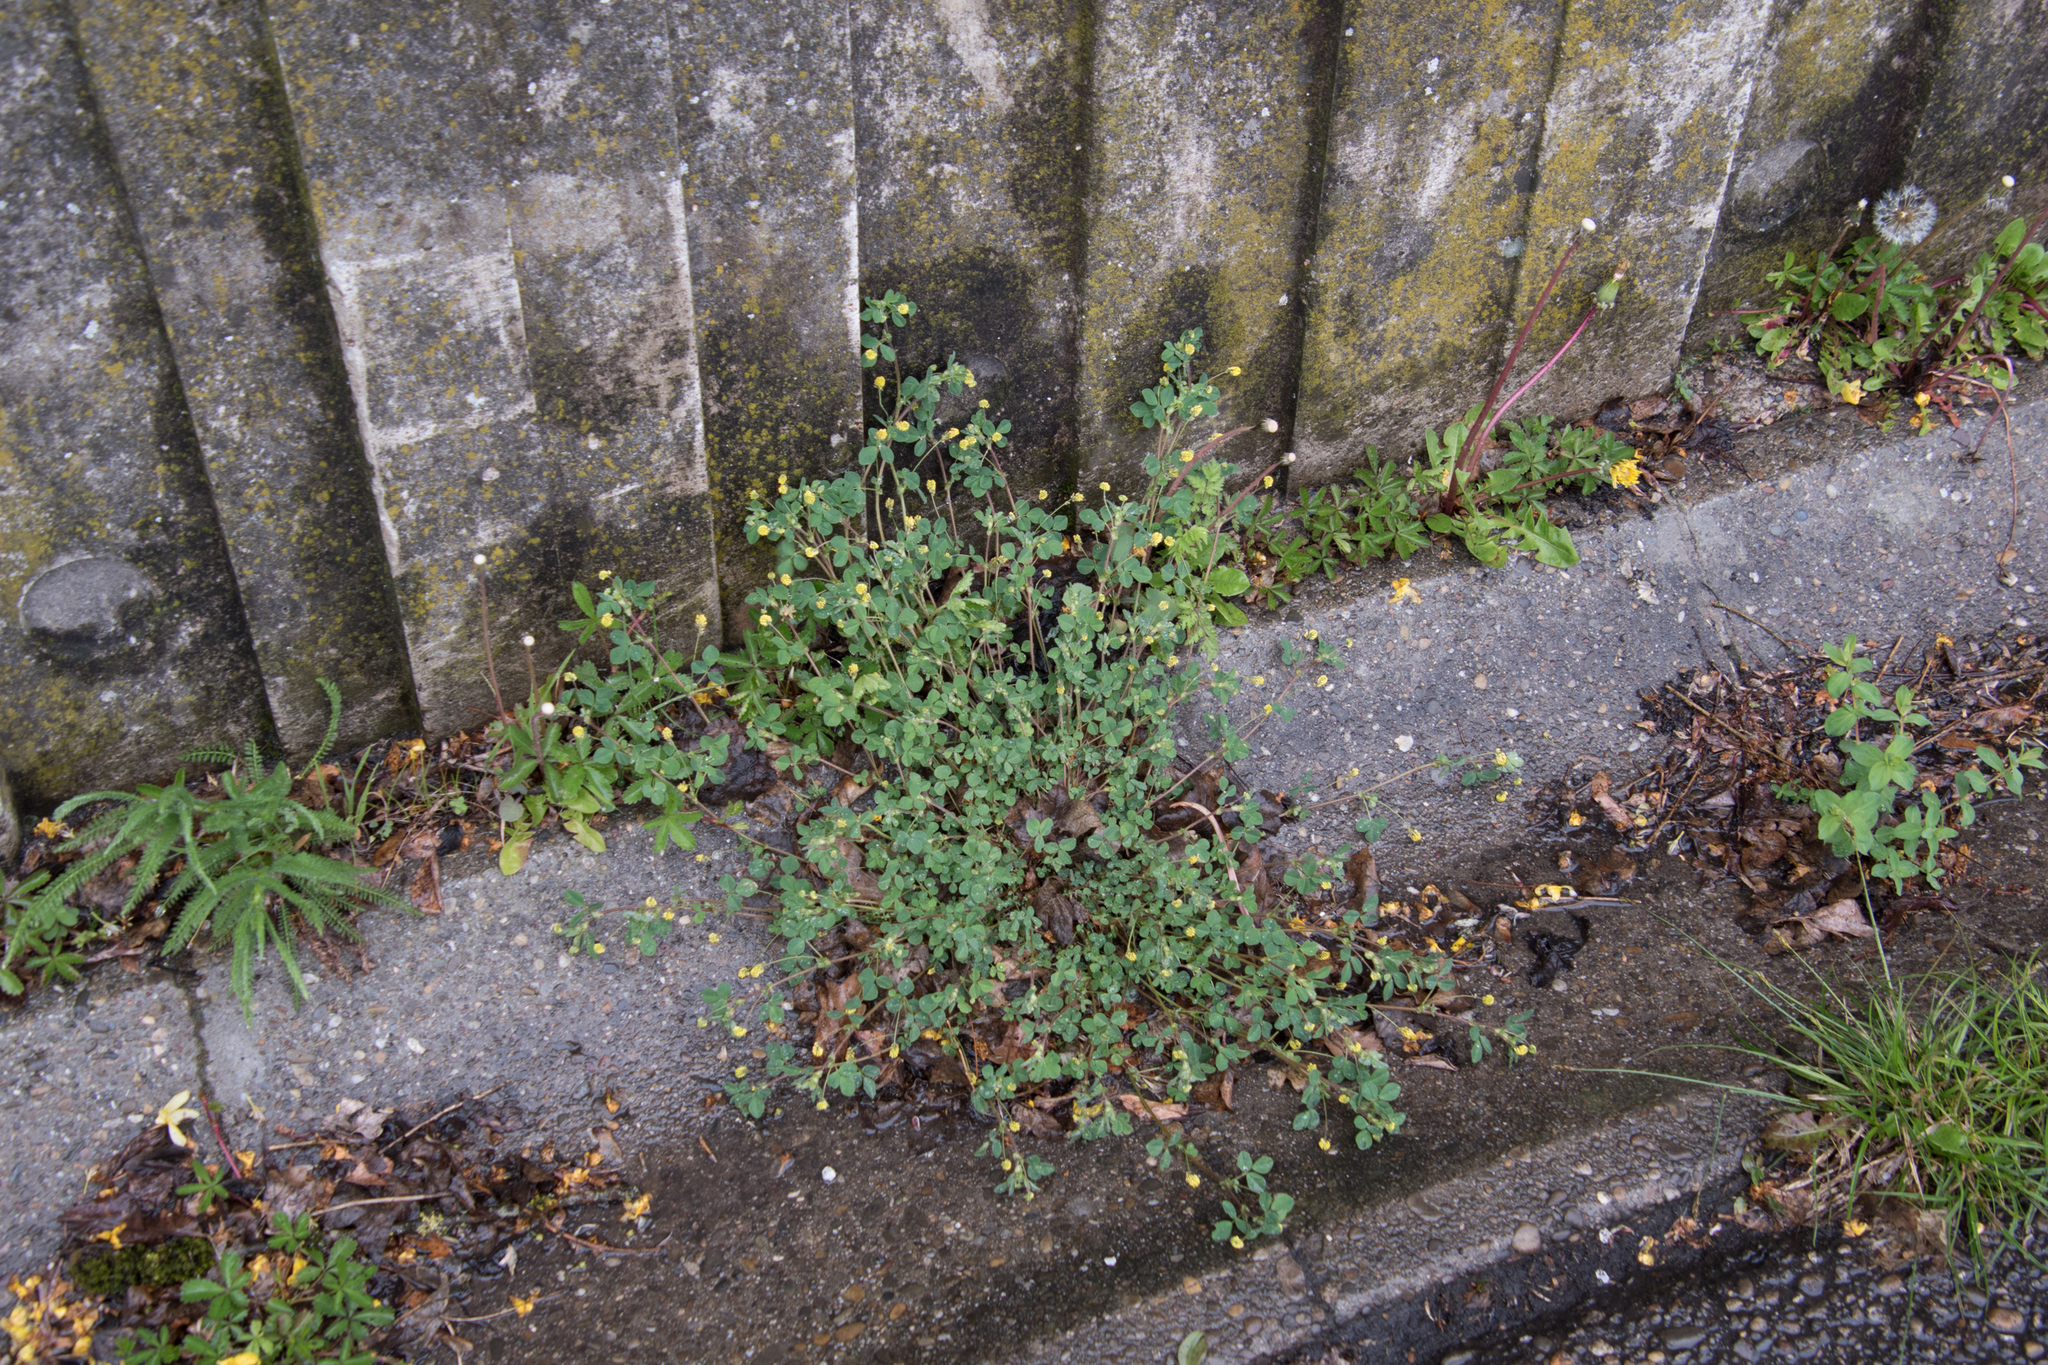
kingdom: Plantae
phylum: Tracheophyta
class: Magnoliopsida
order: Fabales
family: Fabaceae
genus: Medicago
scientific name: Medicago lupulina
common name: Black medick
